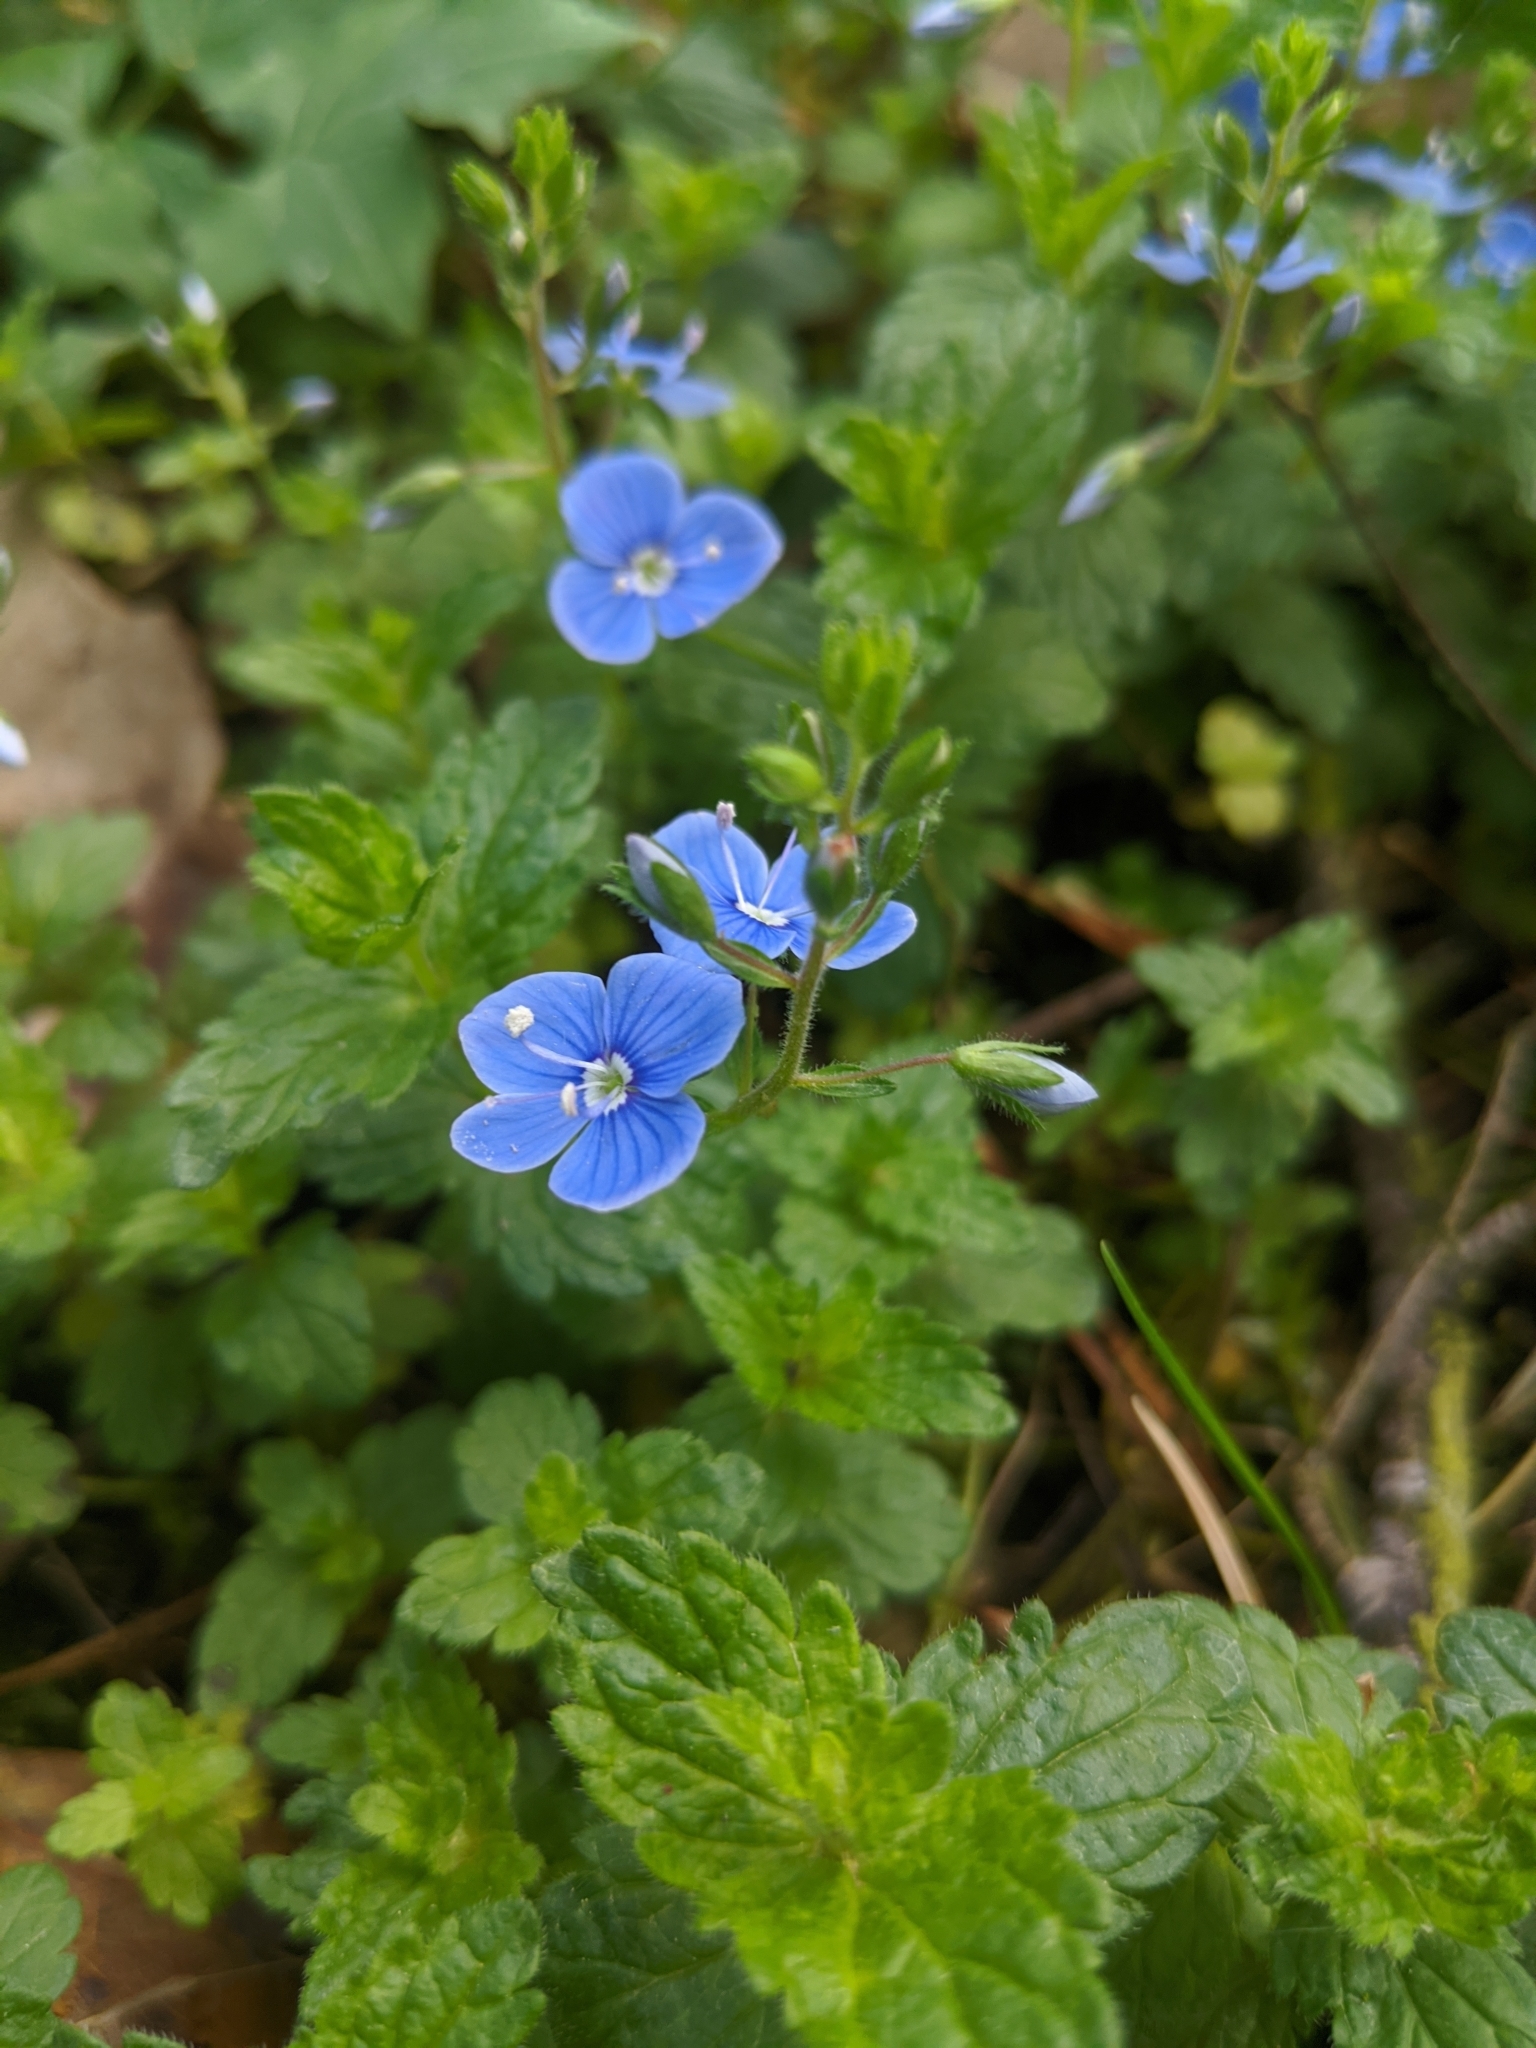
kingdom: Plantae
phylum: Tracheophyta
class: Magnoliopsida
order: Lamiales
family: Plantaginaceae
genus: Veronica
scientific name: Veronica chamaedrys
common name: Germander speedwell
